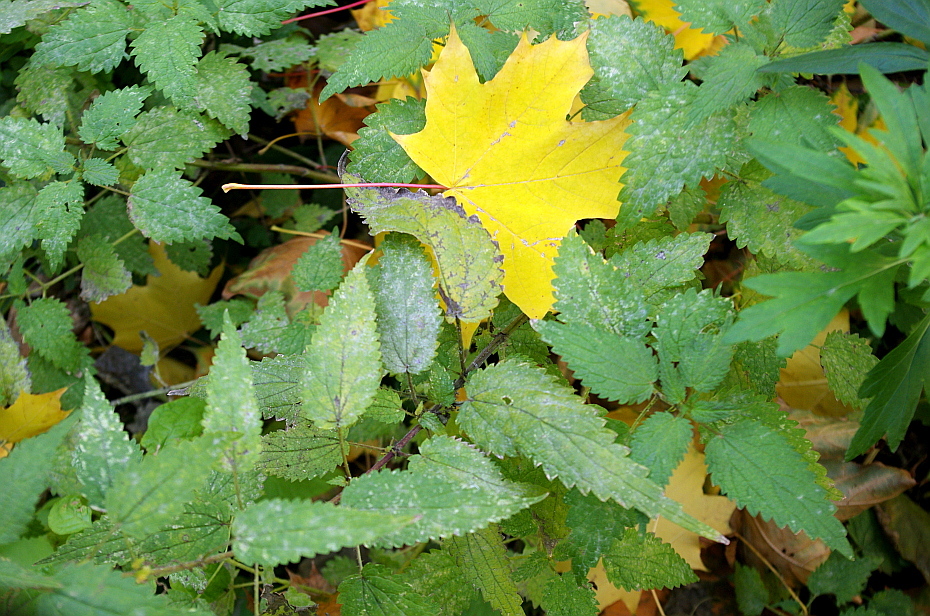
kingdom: Plantae
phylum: Tracheophyta
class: Magnoliopsida
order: Rosales
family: Urticaceae
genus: Urtica
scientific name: Urtica dioica
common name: Common nettle
